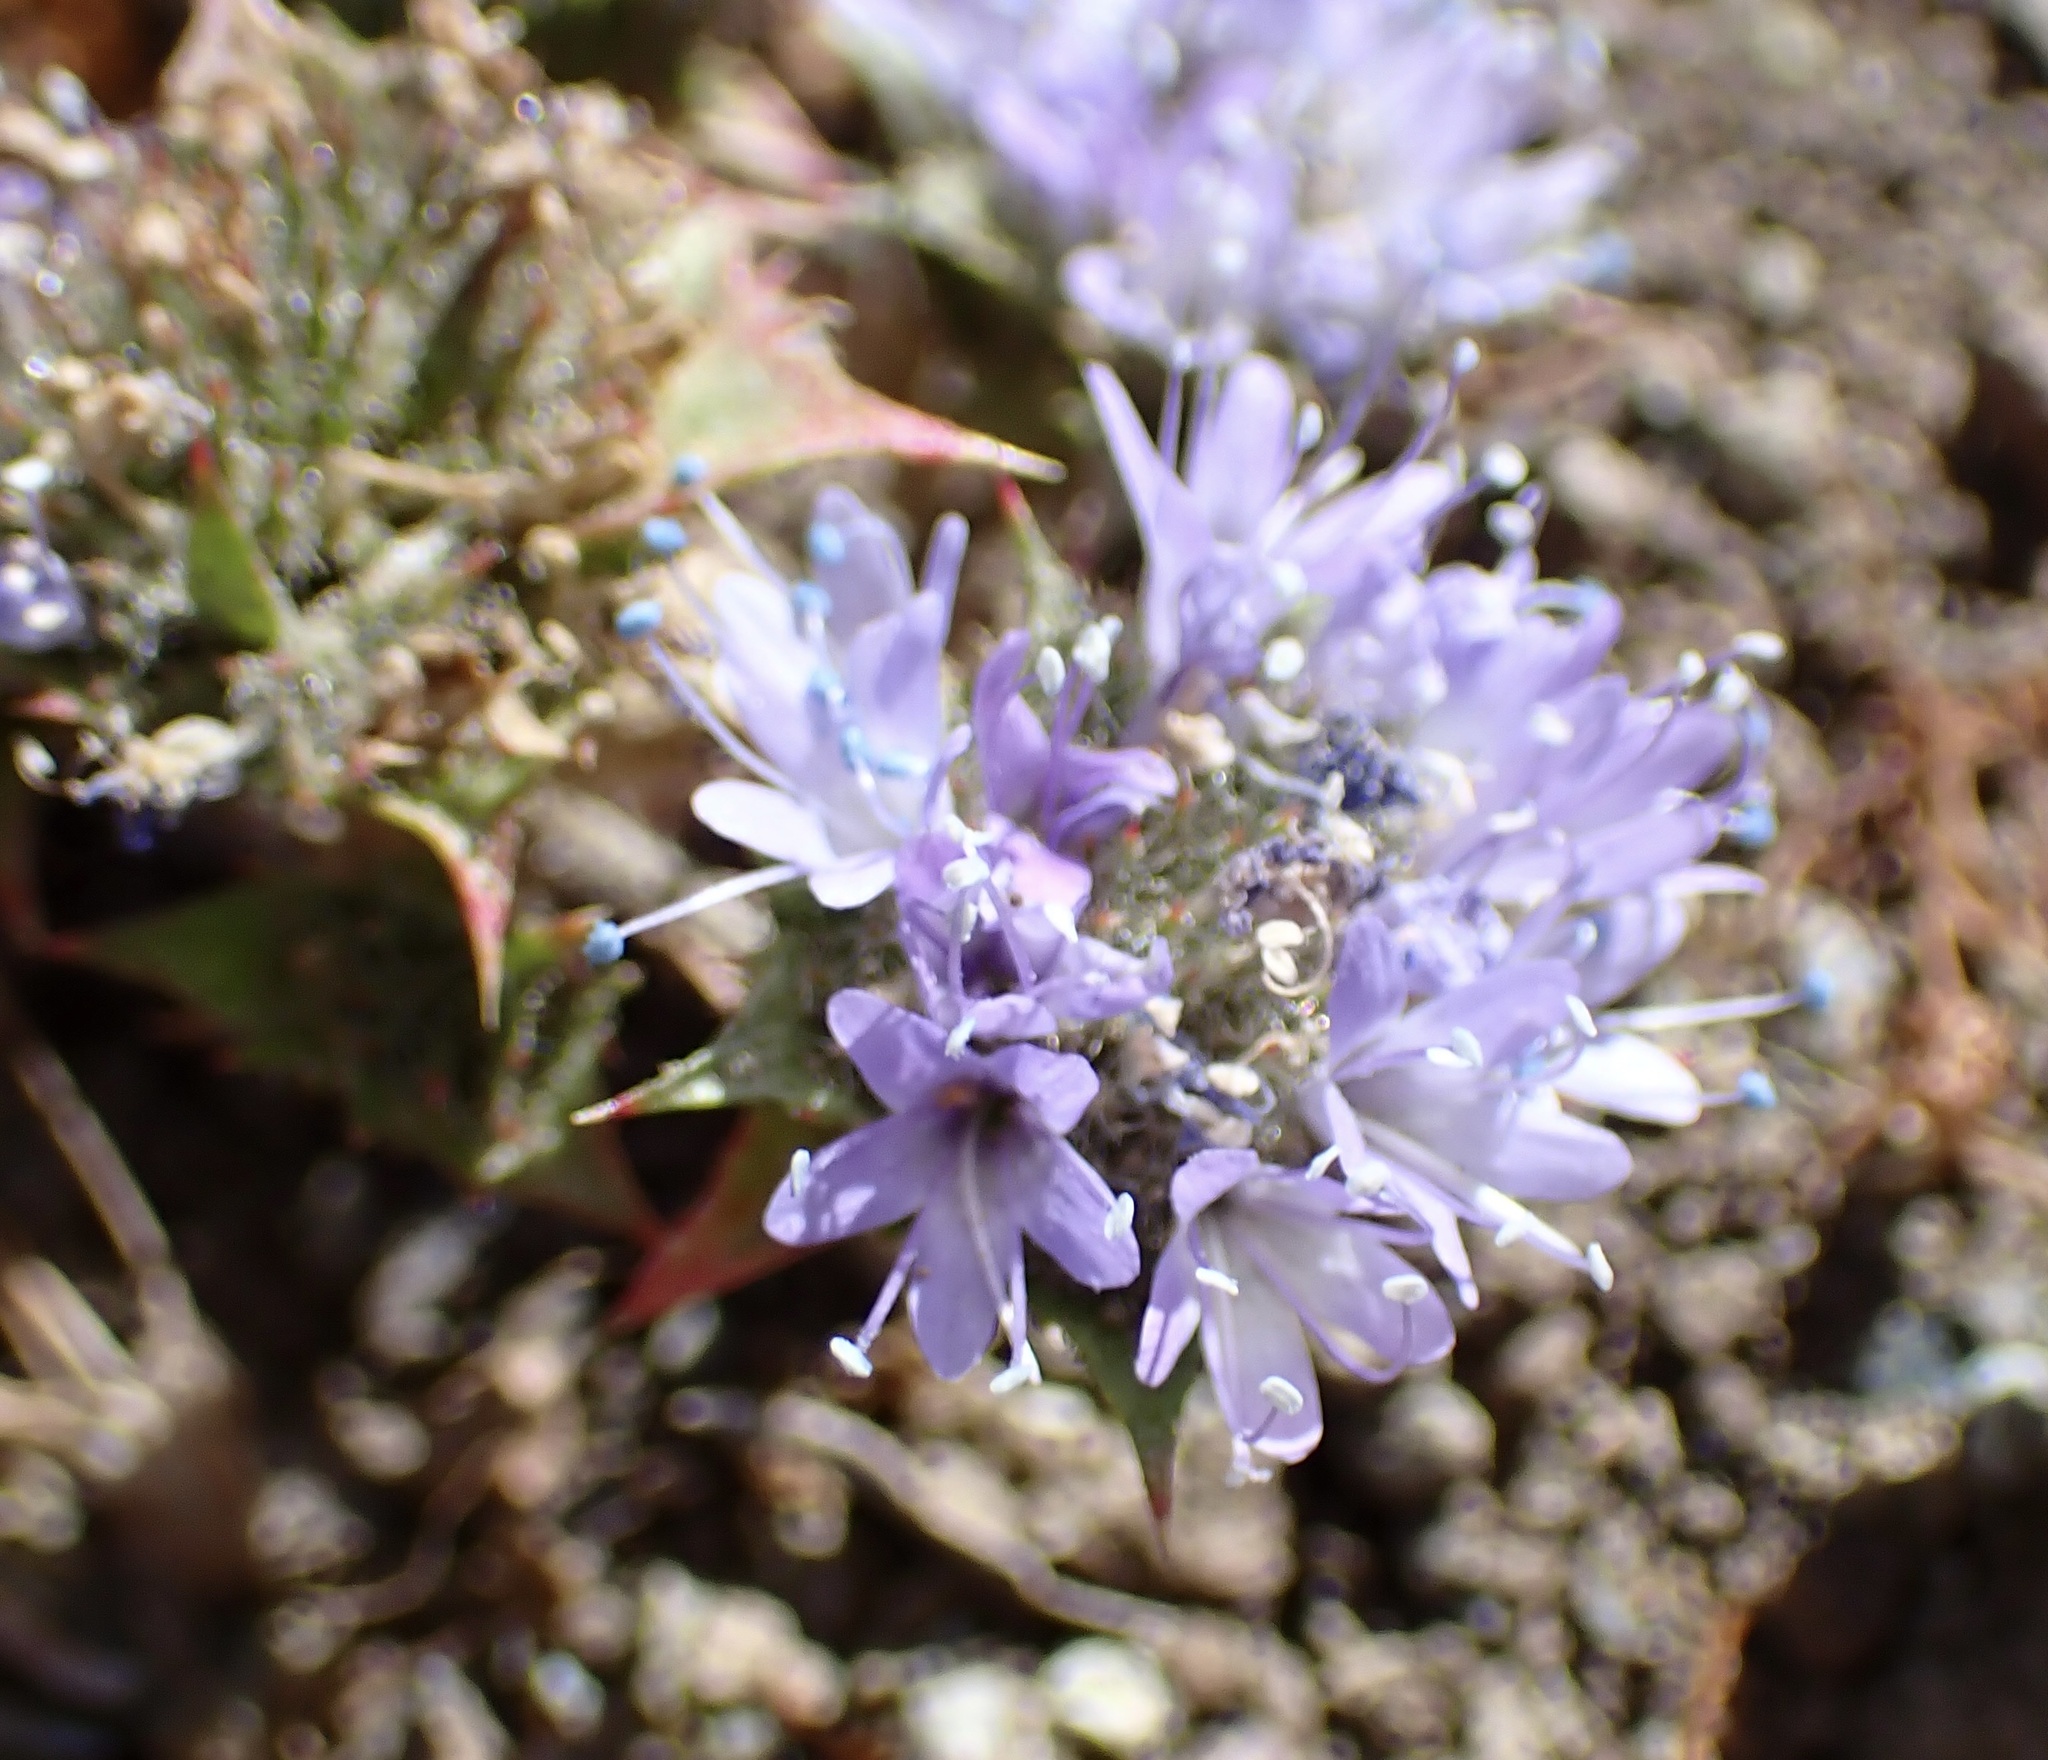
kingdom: Plantae
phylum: Tracheophyta
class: Magnoliopsida
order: Ericales
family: Polemoniaceae
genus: Navarretia
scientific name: Navarretia heterodoxa
